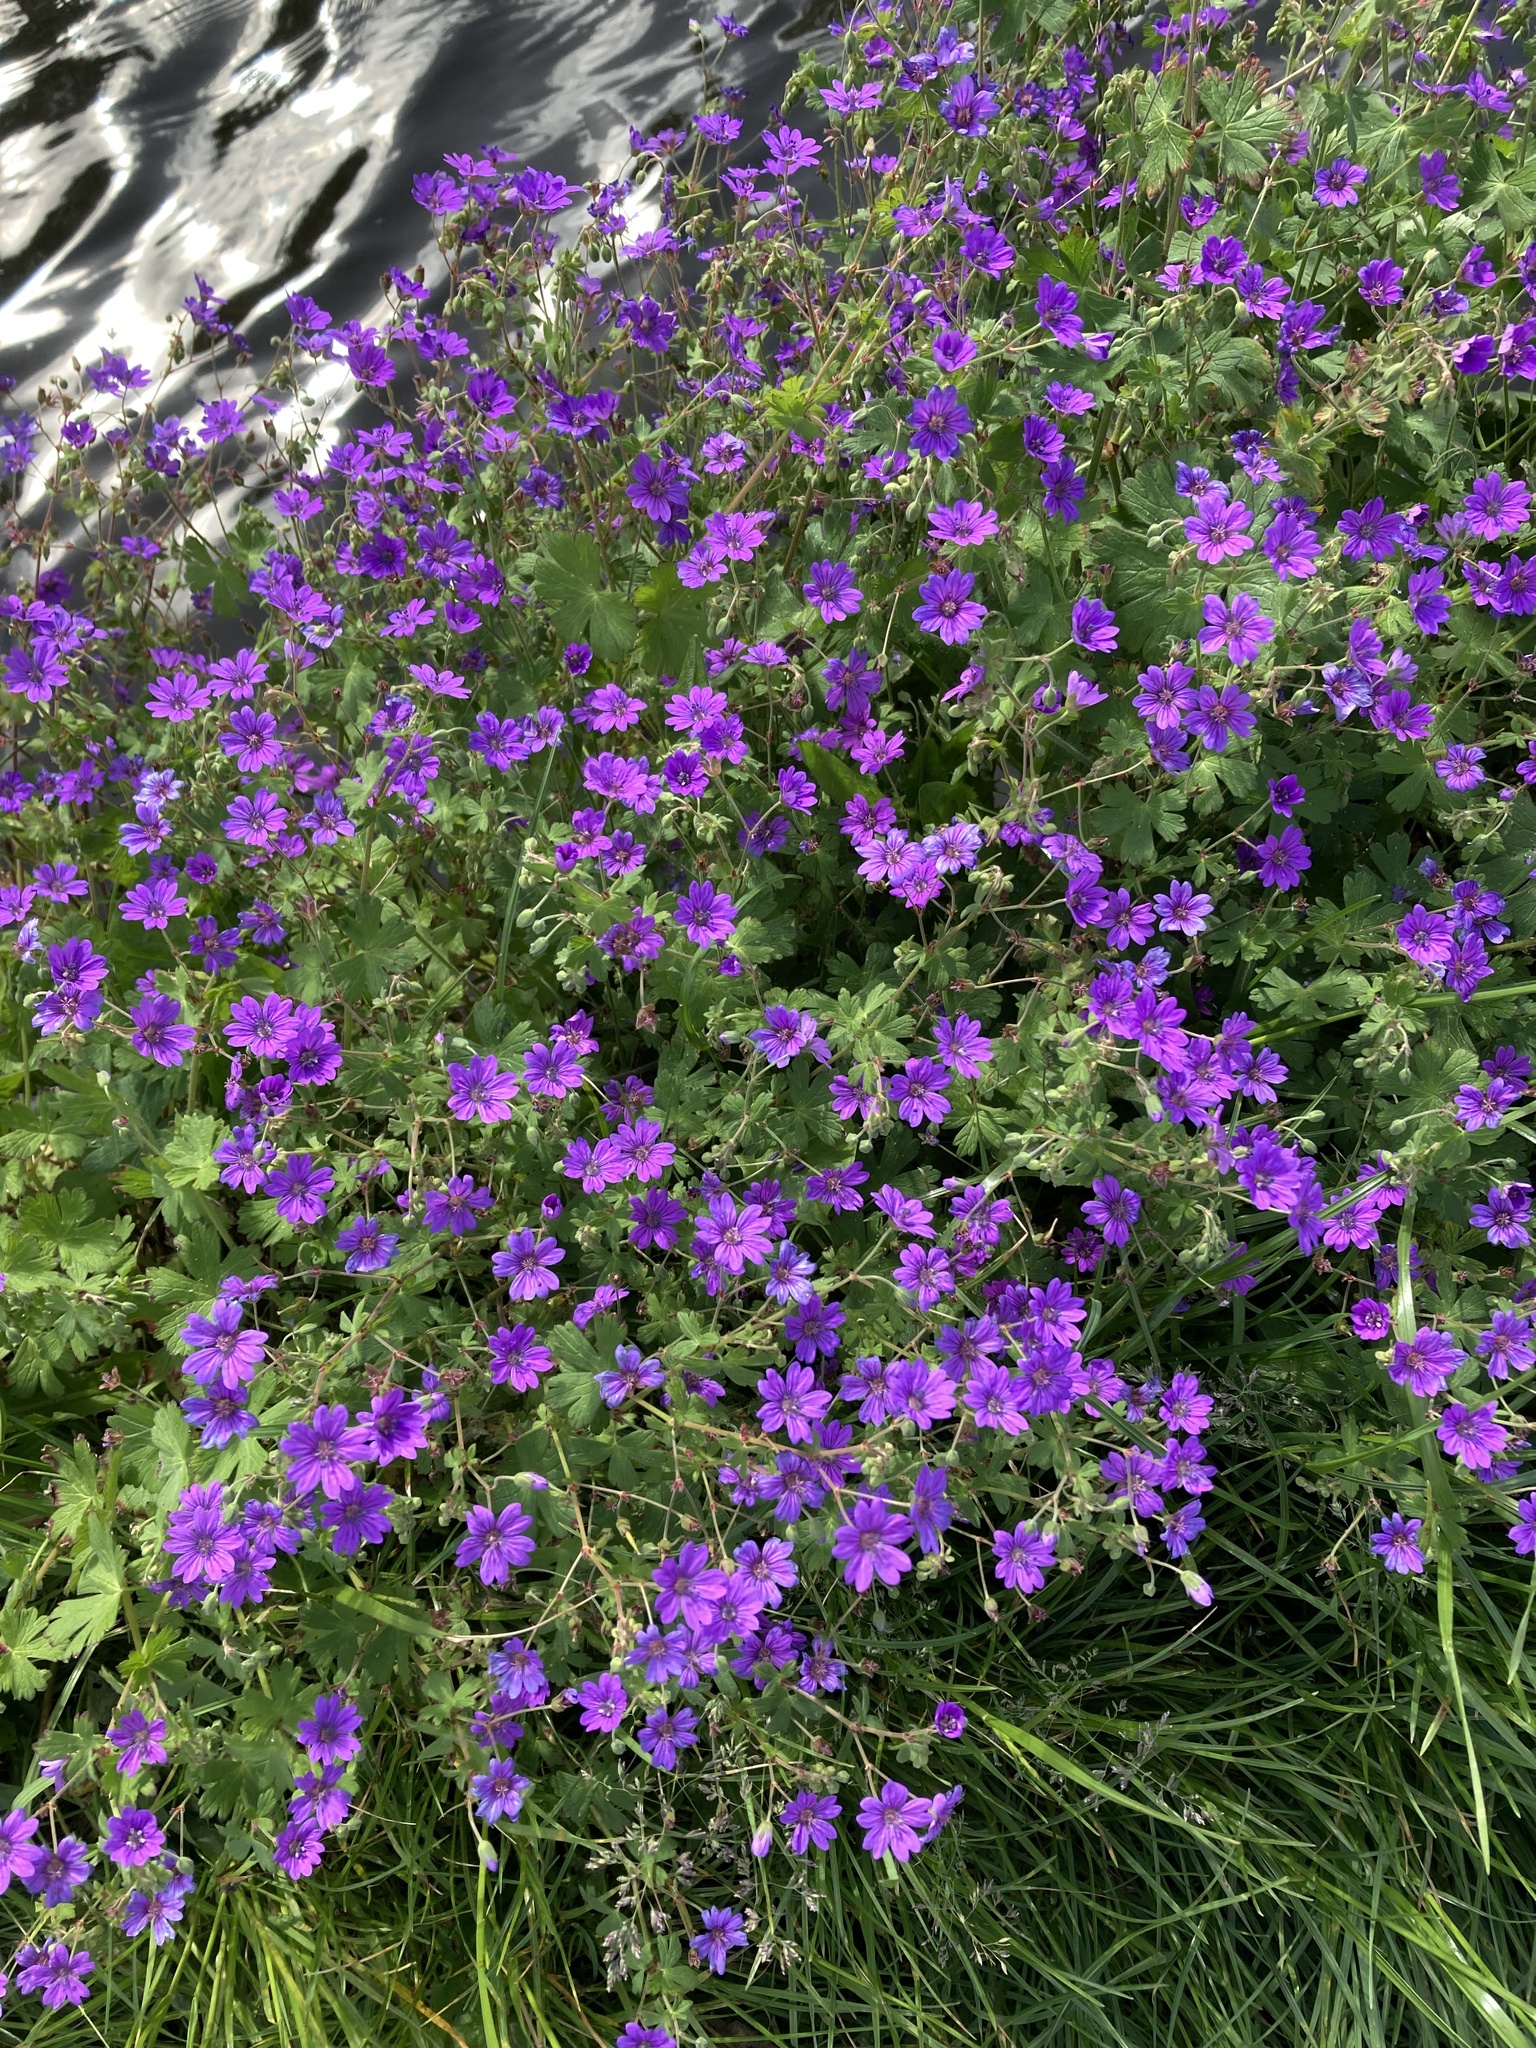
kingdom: Plantae
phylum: Tracheophyta
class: Magnoliopsida
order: Geraniales
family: Geraniaceae
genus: Geranium
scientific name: Geranium pyrenaicum
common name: Hedgerow crane's-bill
